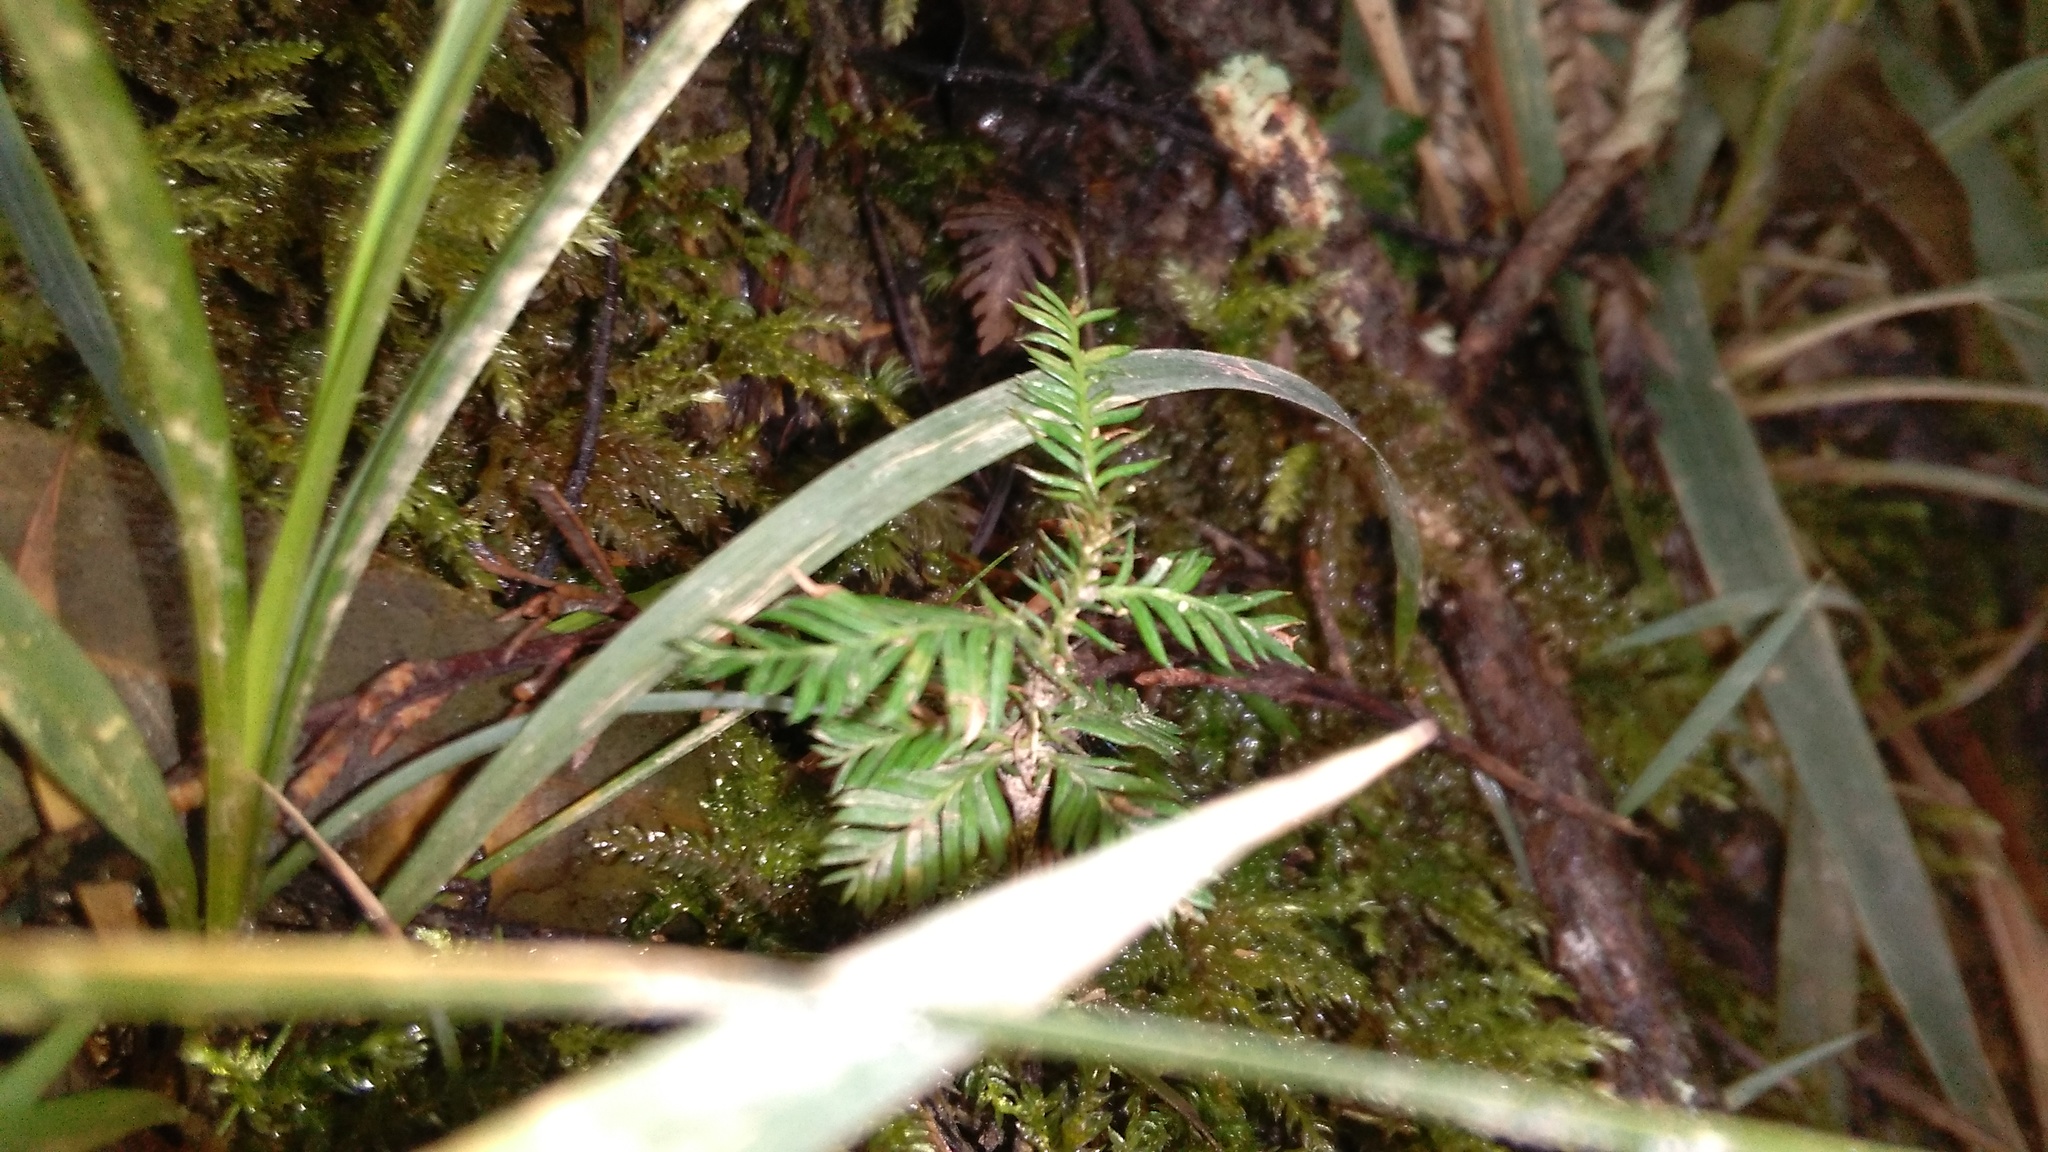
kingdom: Plantae
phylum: Tracheophyta
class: Pinopsida
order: Pinales
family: Podocarpaceae
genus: Dacrycarpus
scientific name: Dacrycarpus dacrydioides
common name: White pine
